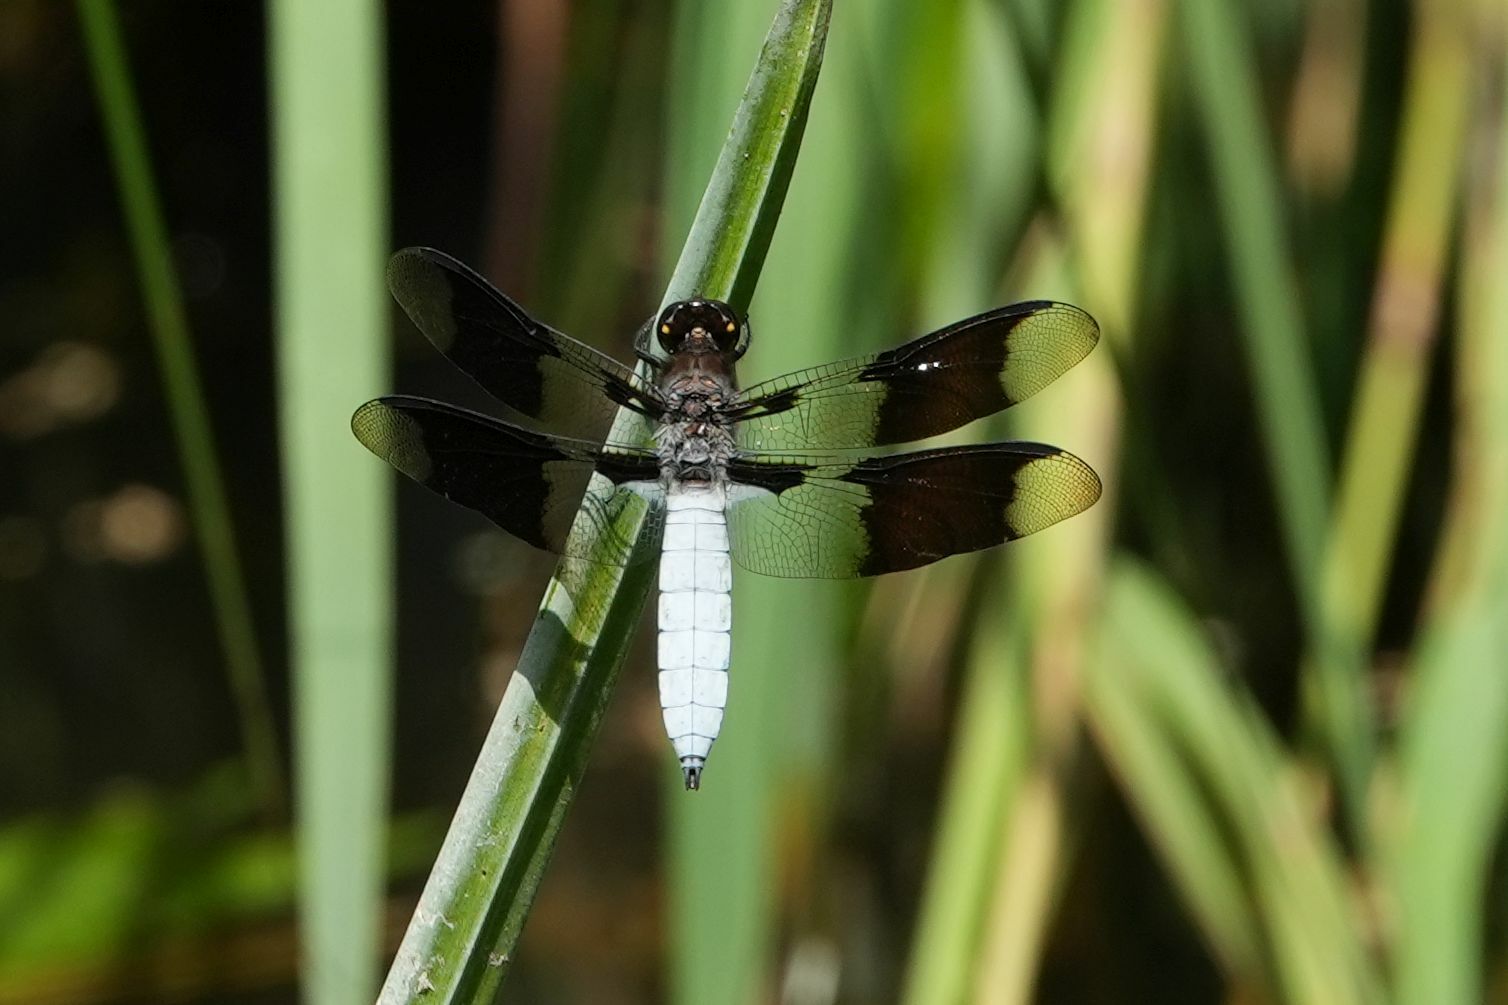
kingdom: Animalia
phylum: Arthropoda
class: Insecta
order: Odonata
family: Libellulidae
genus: Plathemis
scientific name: Plathemis lydia
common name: Common whitetail
